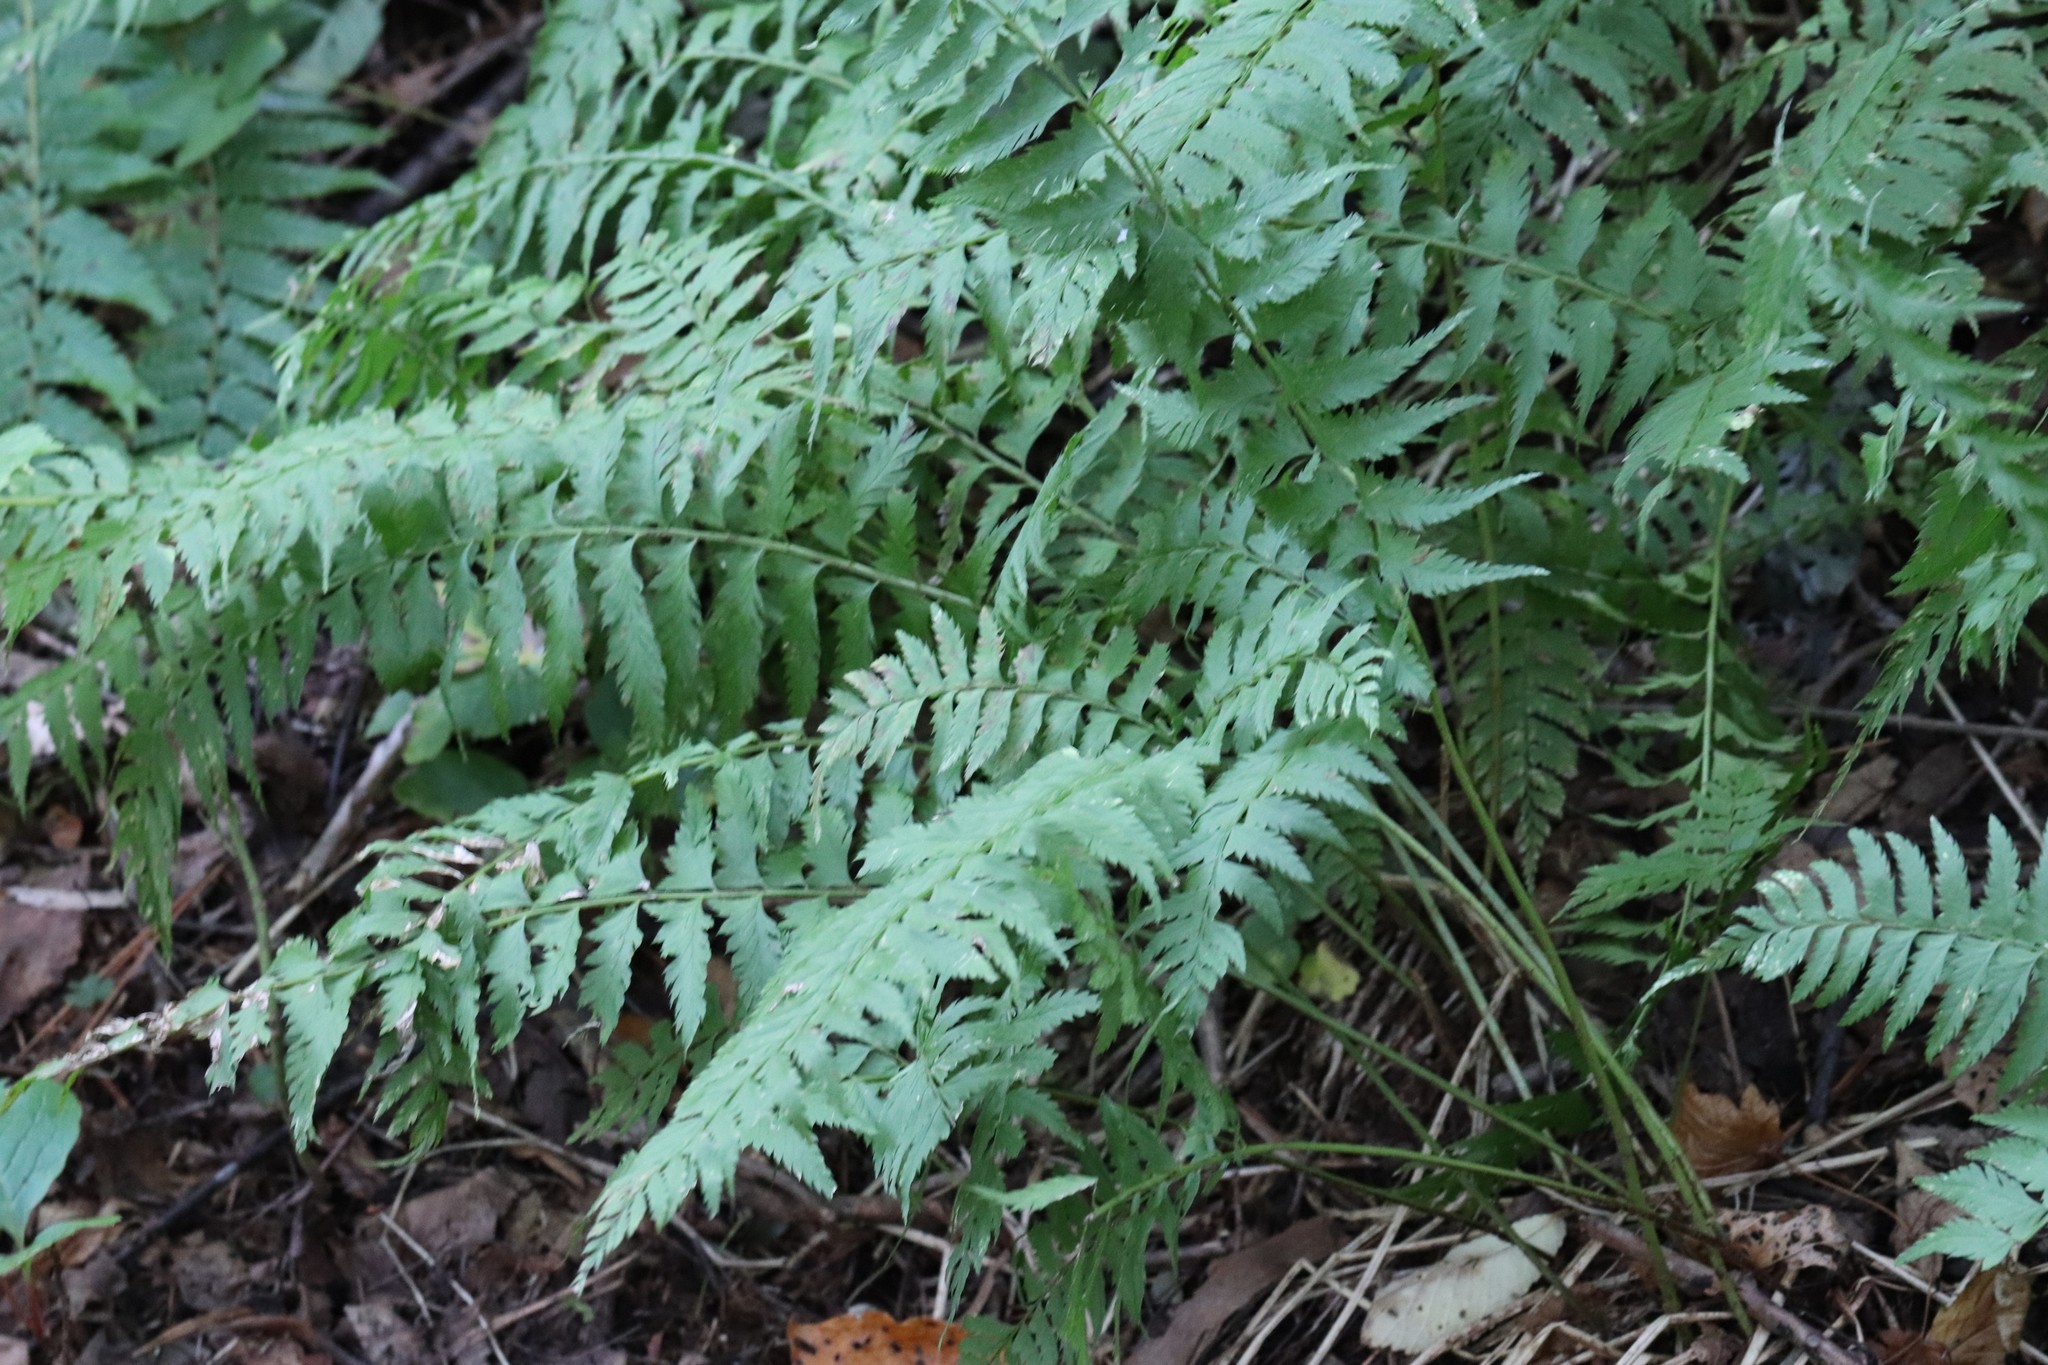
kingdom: Plantae
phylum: Tracheophyta
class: Polypodiopsida
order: Polypodiales
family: Dryopteridaceae
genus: Polystichum
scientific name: Polystichum tripteron
